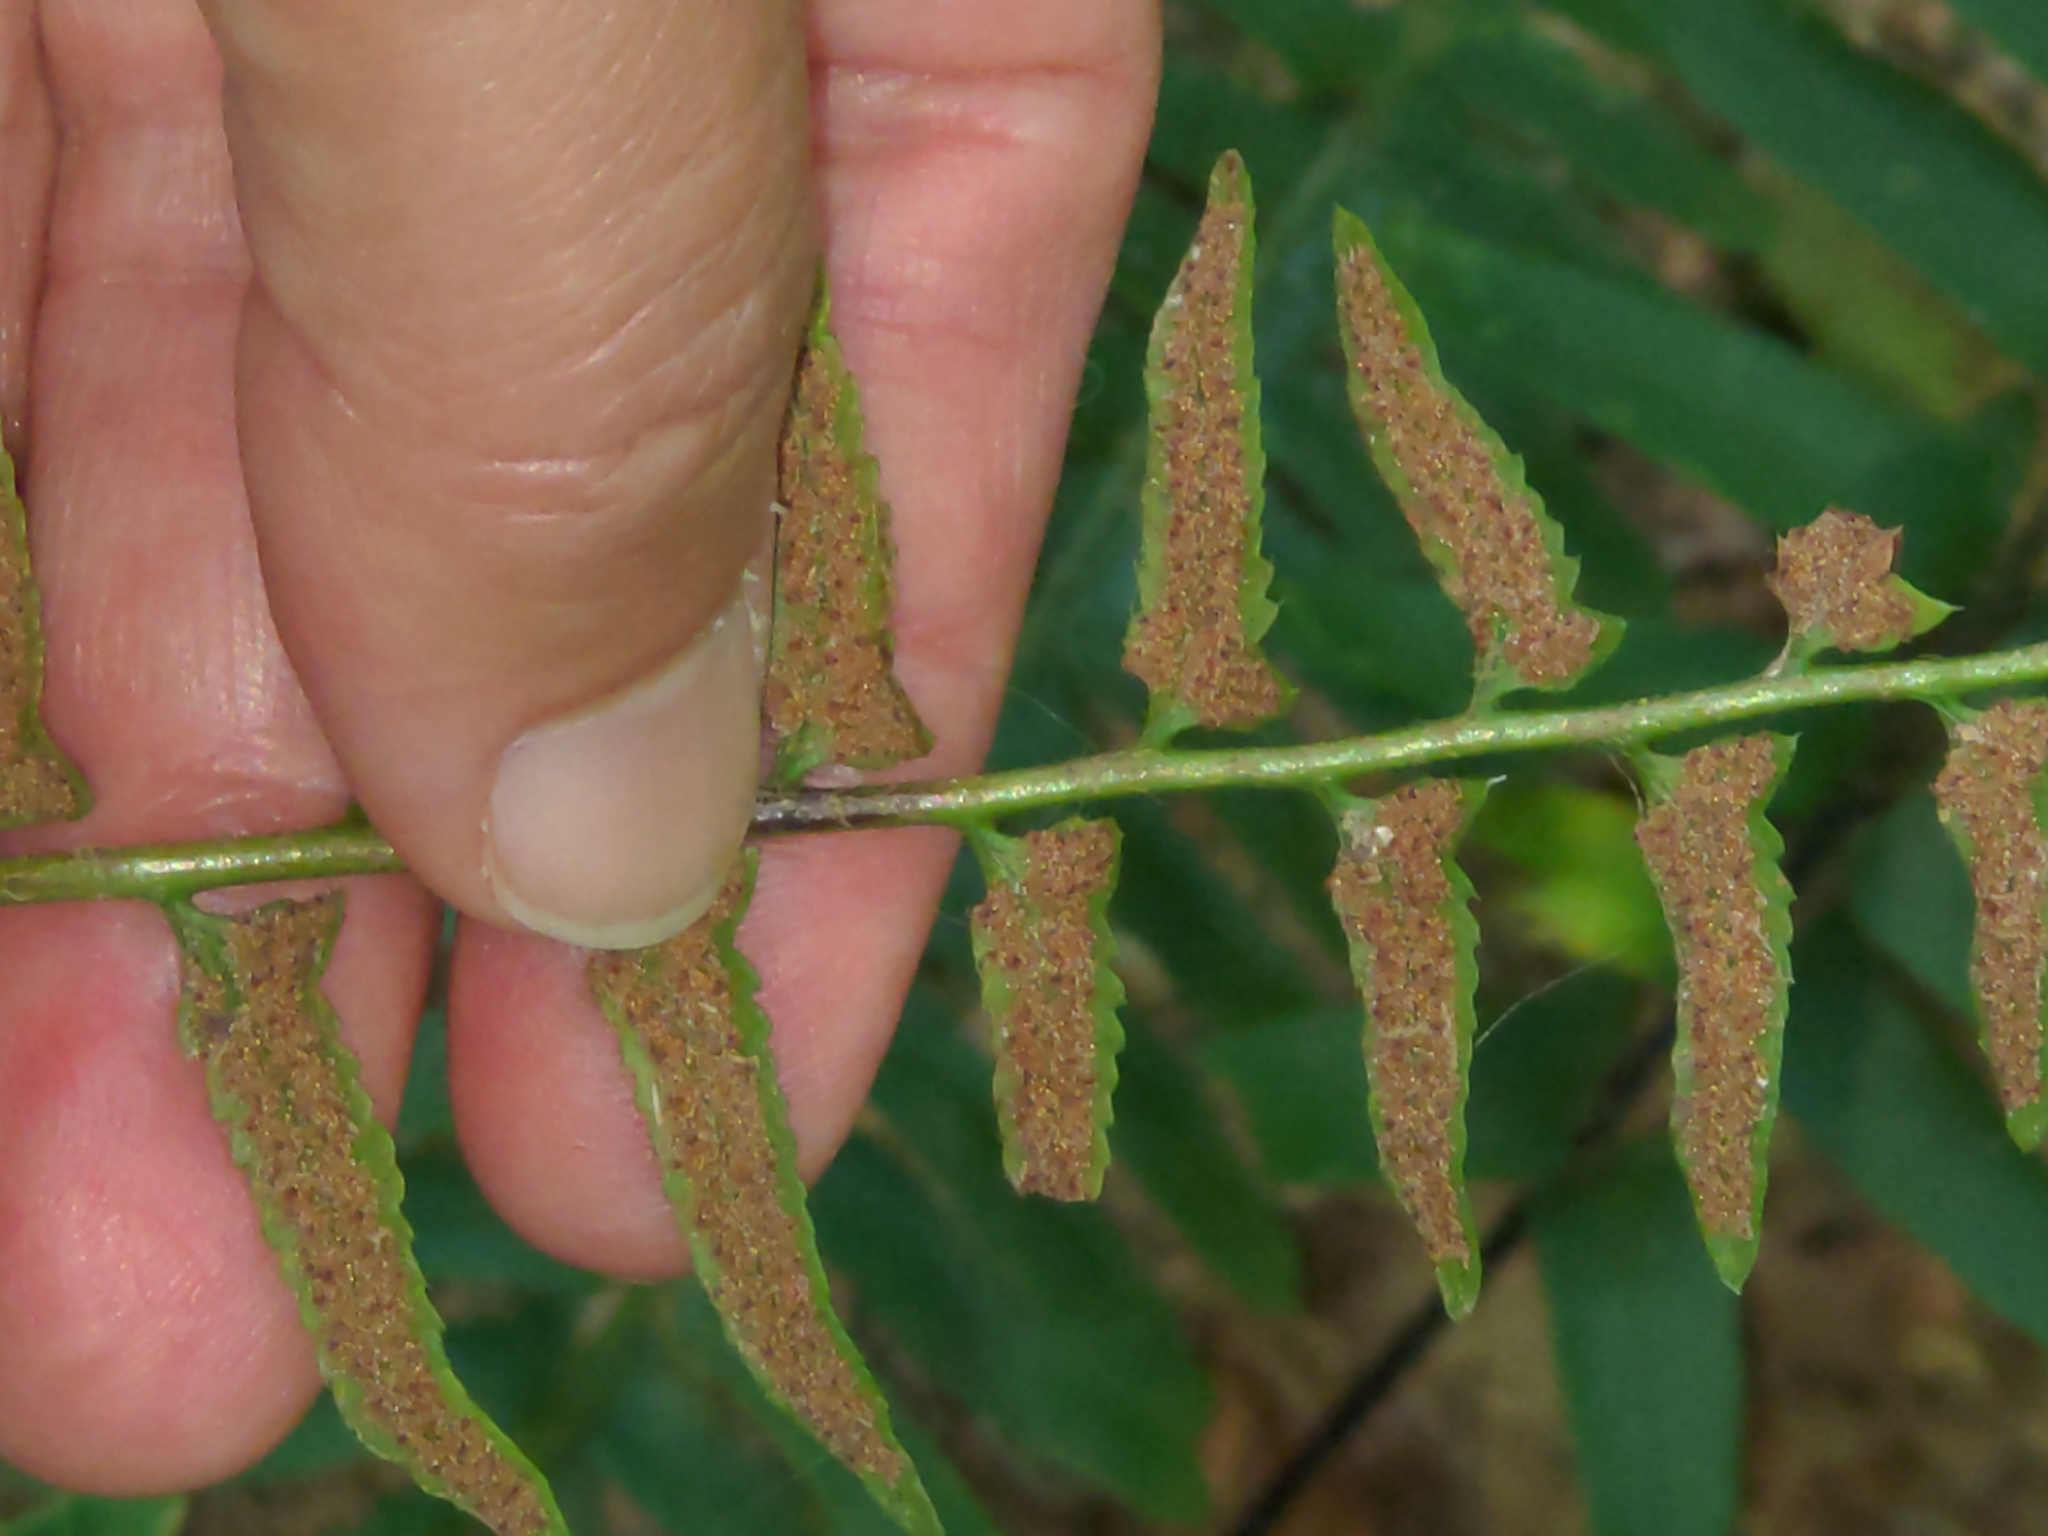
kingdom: Plantae
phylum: Tracheophyta
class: Polypodiopsida
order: Polypodiales
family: Dryopteridaceae
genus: Polystichum
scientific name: Polystichum acrostichoides
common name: Christmas fern
